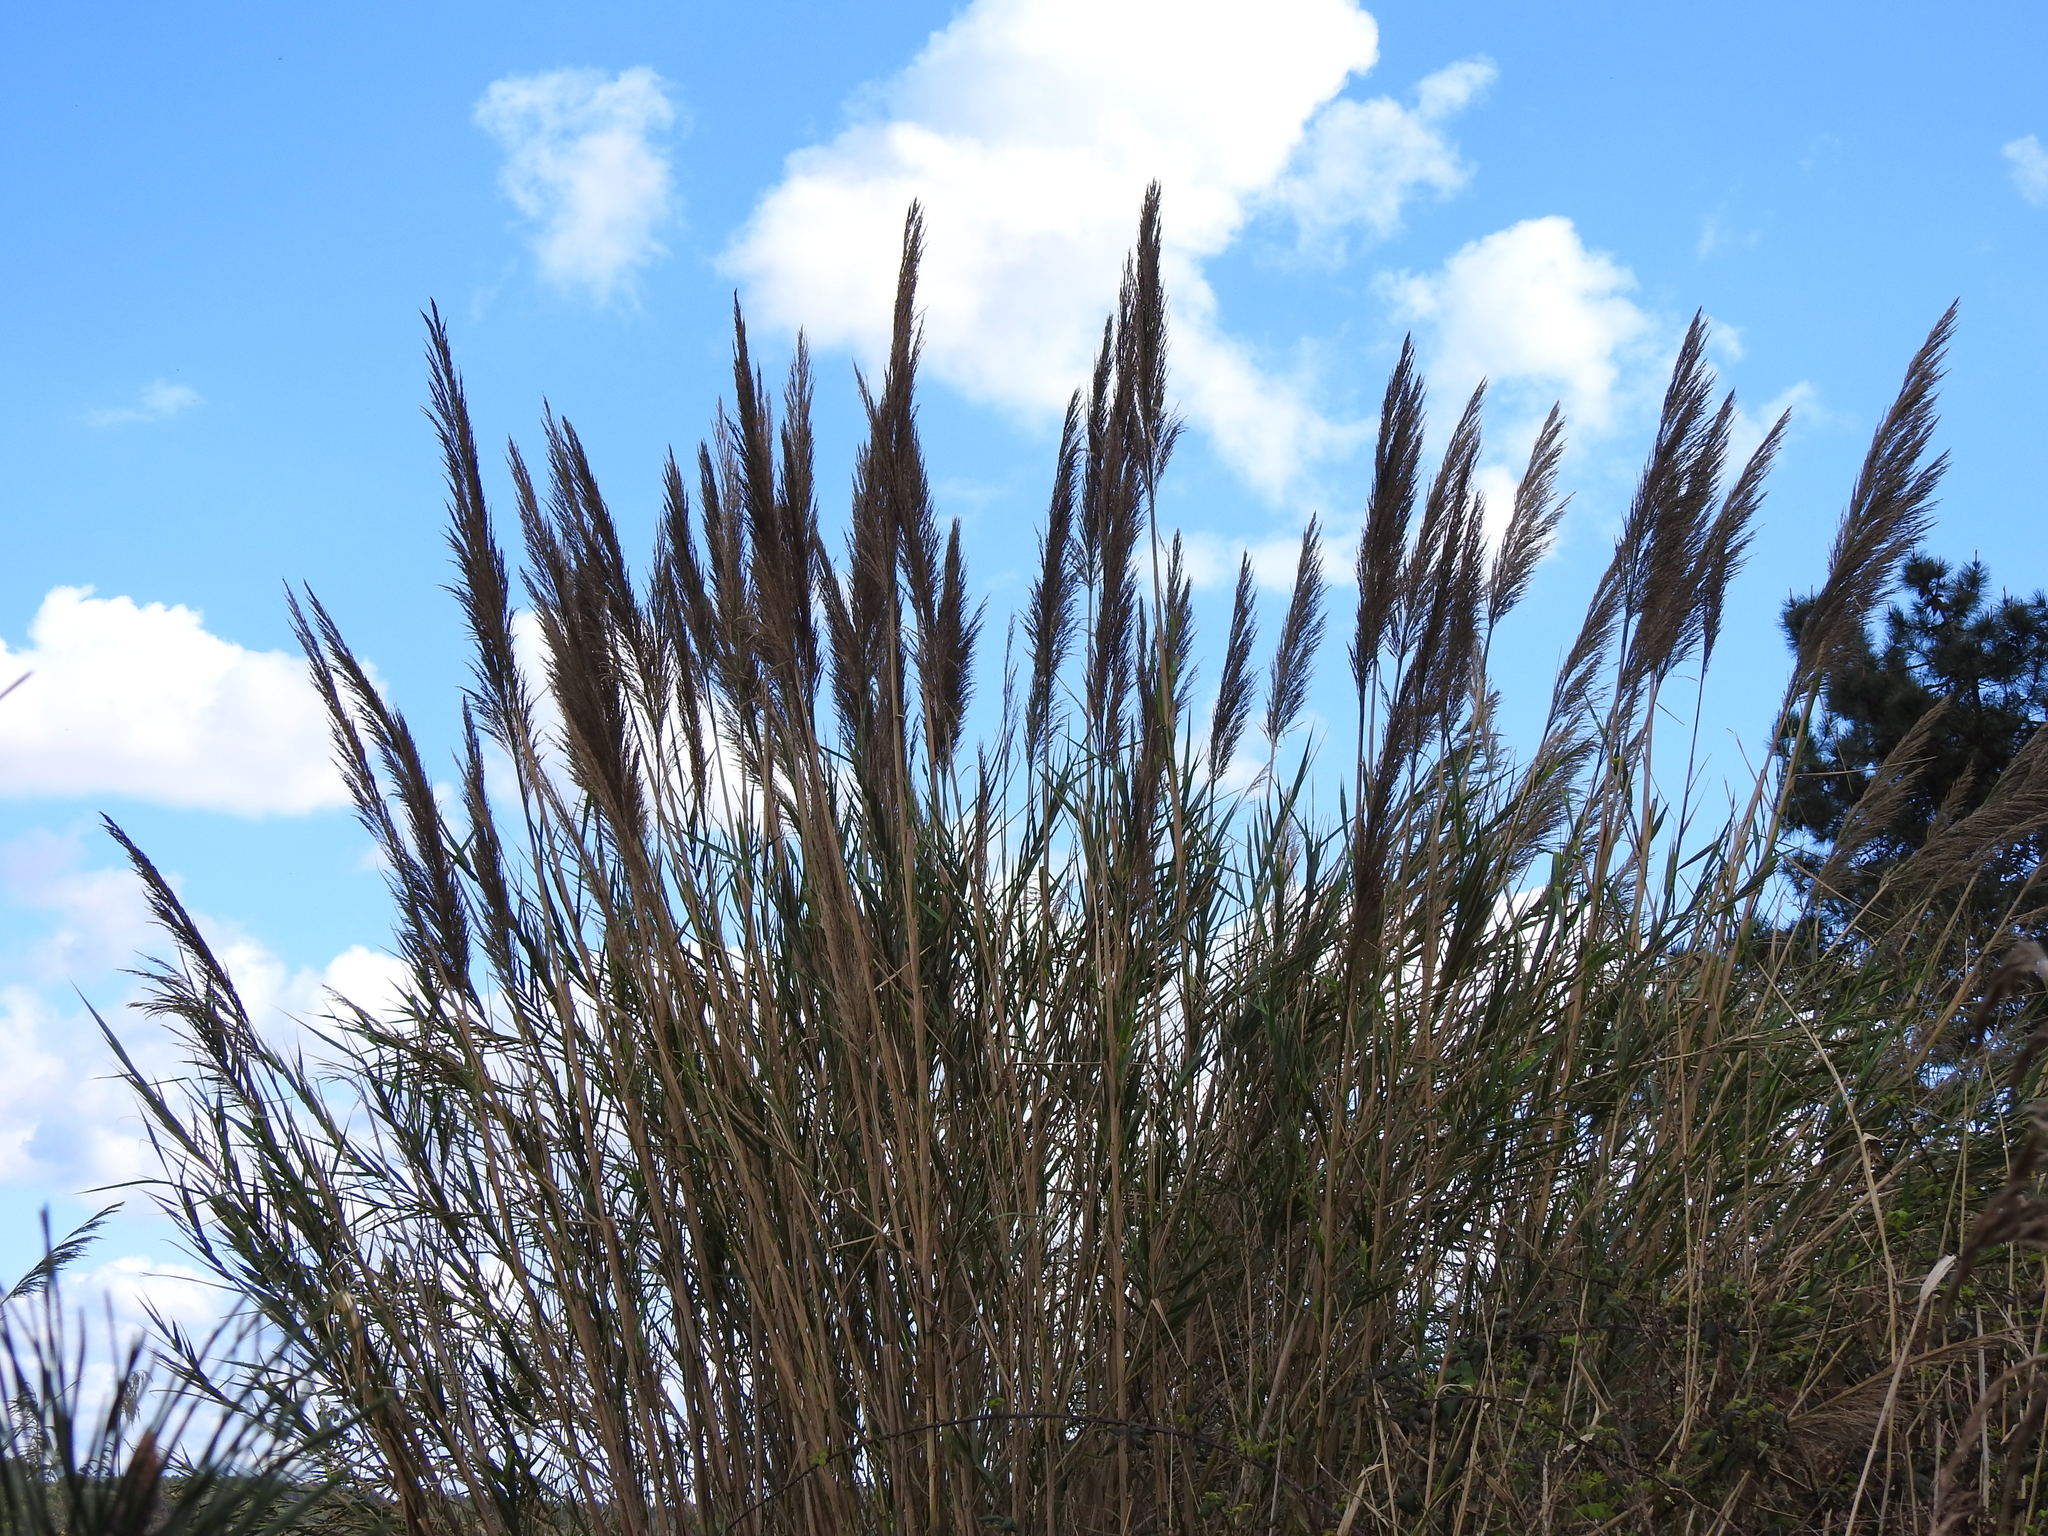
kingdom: Plantae
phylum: Tracheophyta
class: Liliopsida
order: Poales
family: Poaceae
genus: Arundo
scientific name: Arundo micrantha
